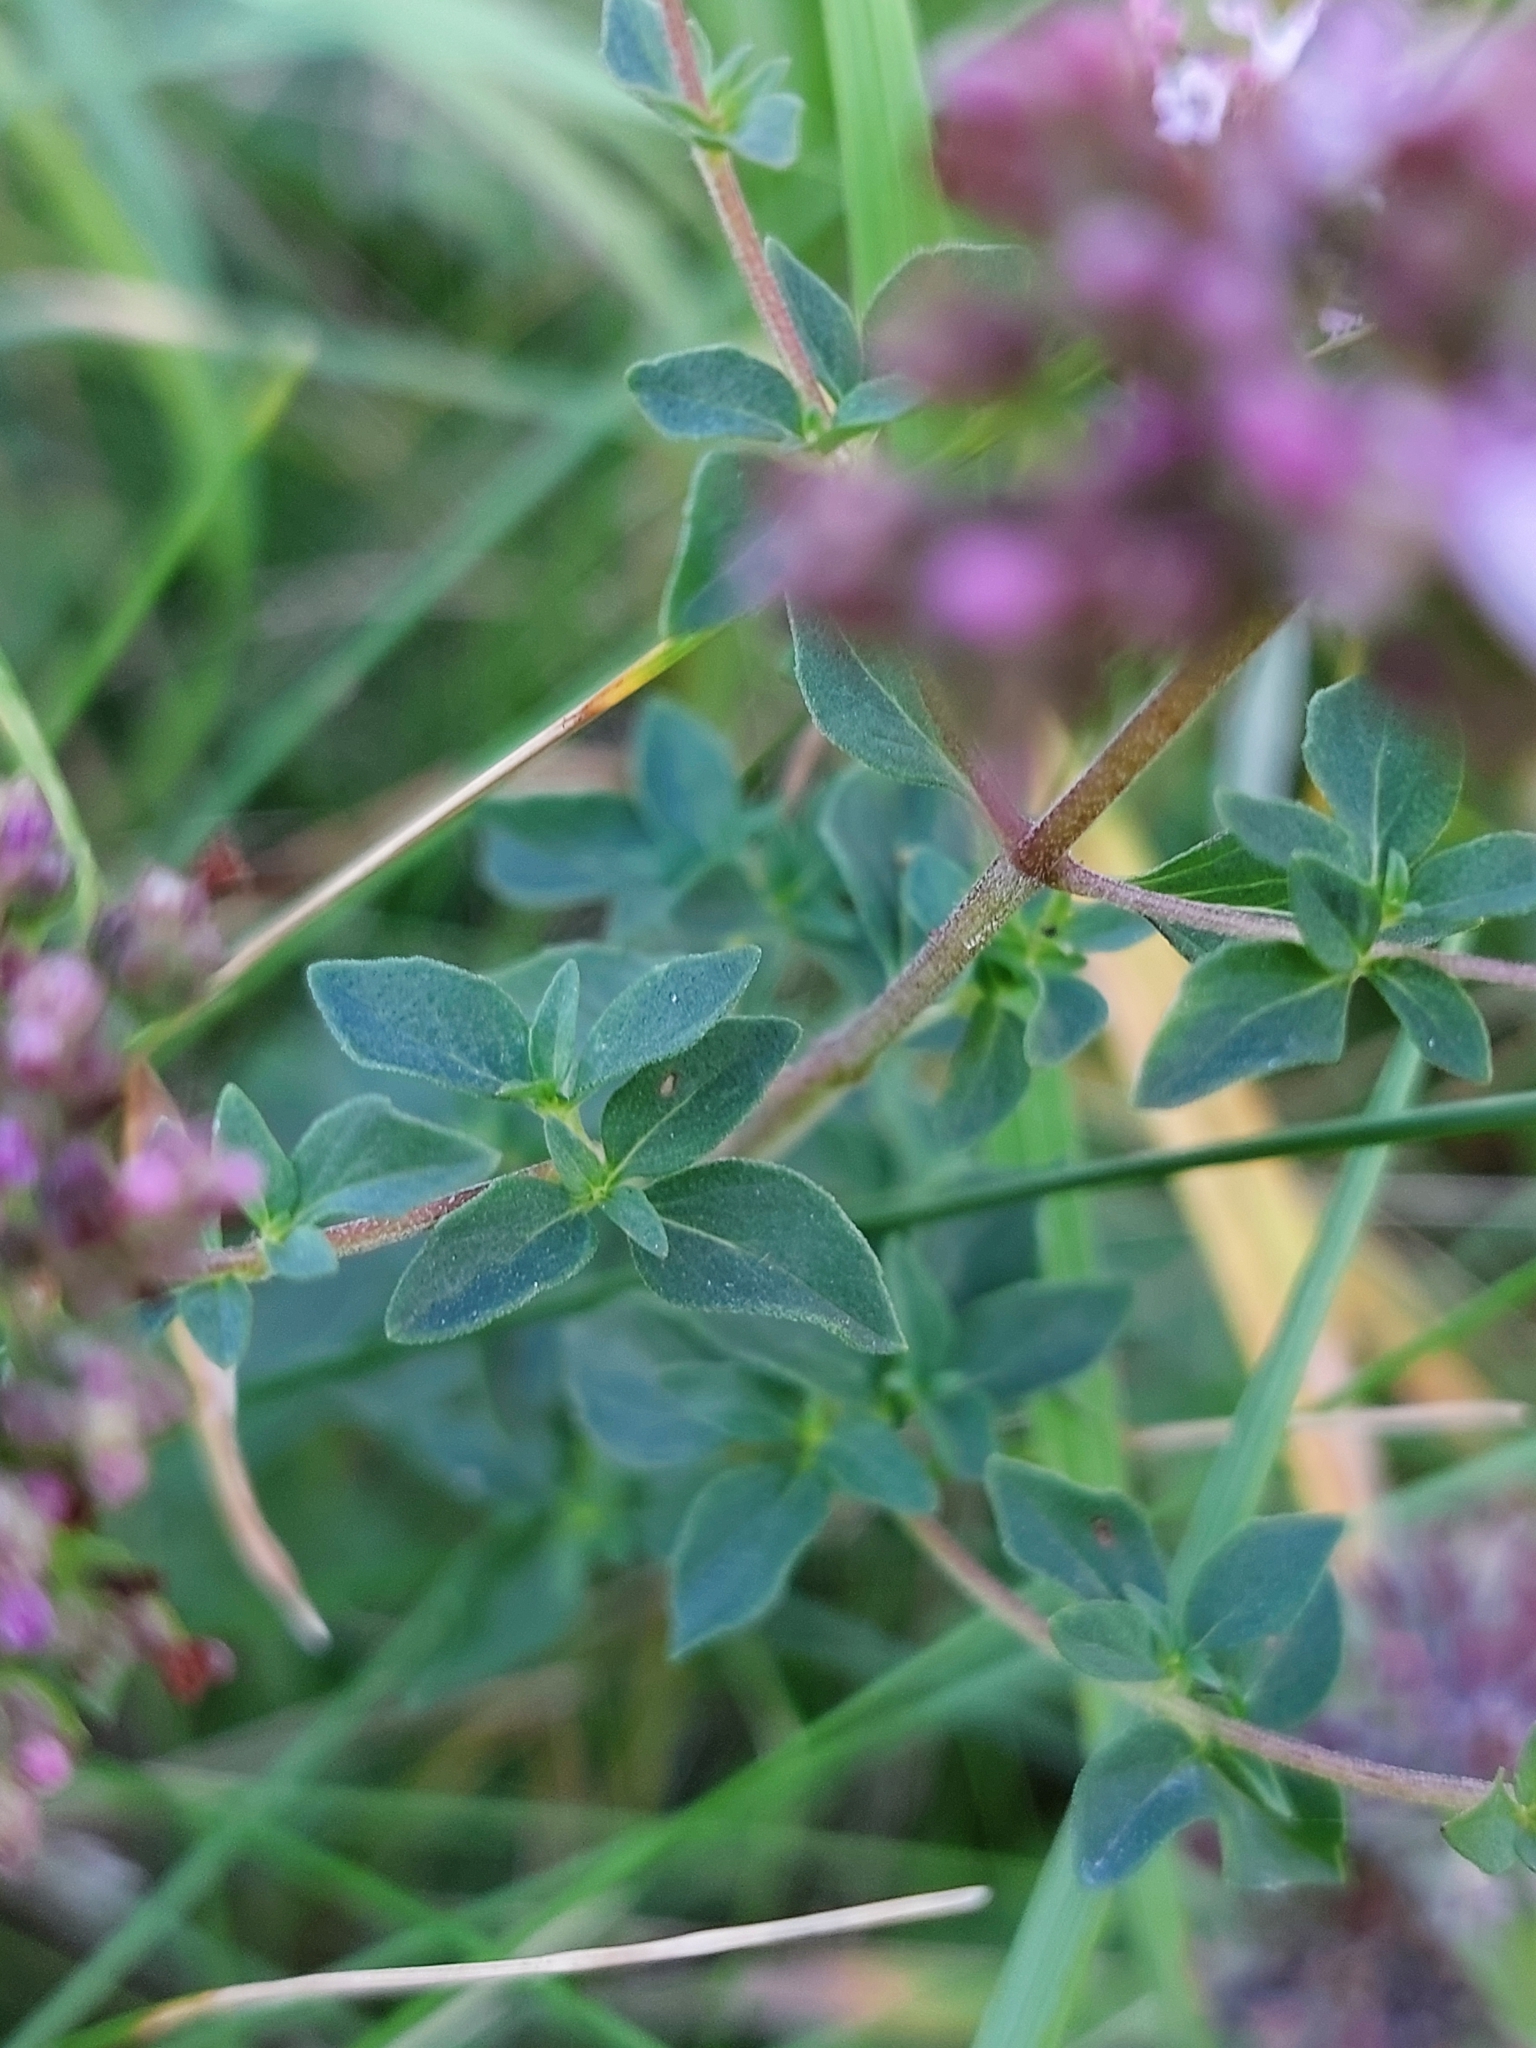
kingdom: Plantae
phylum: Tracheophyta
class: Magnoliopsida
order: Lamiales
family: Lamiaceae
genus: Origanum
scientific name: Origanum vulgare
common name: Wild marjoram
